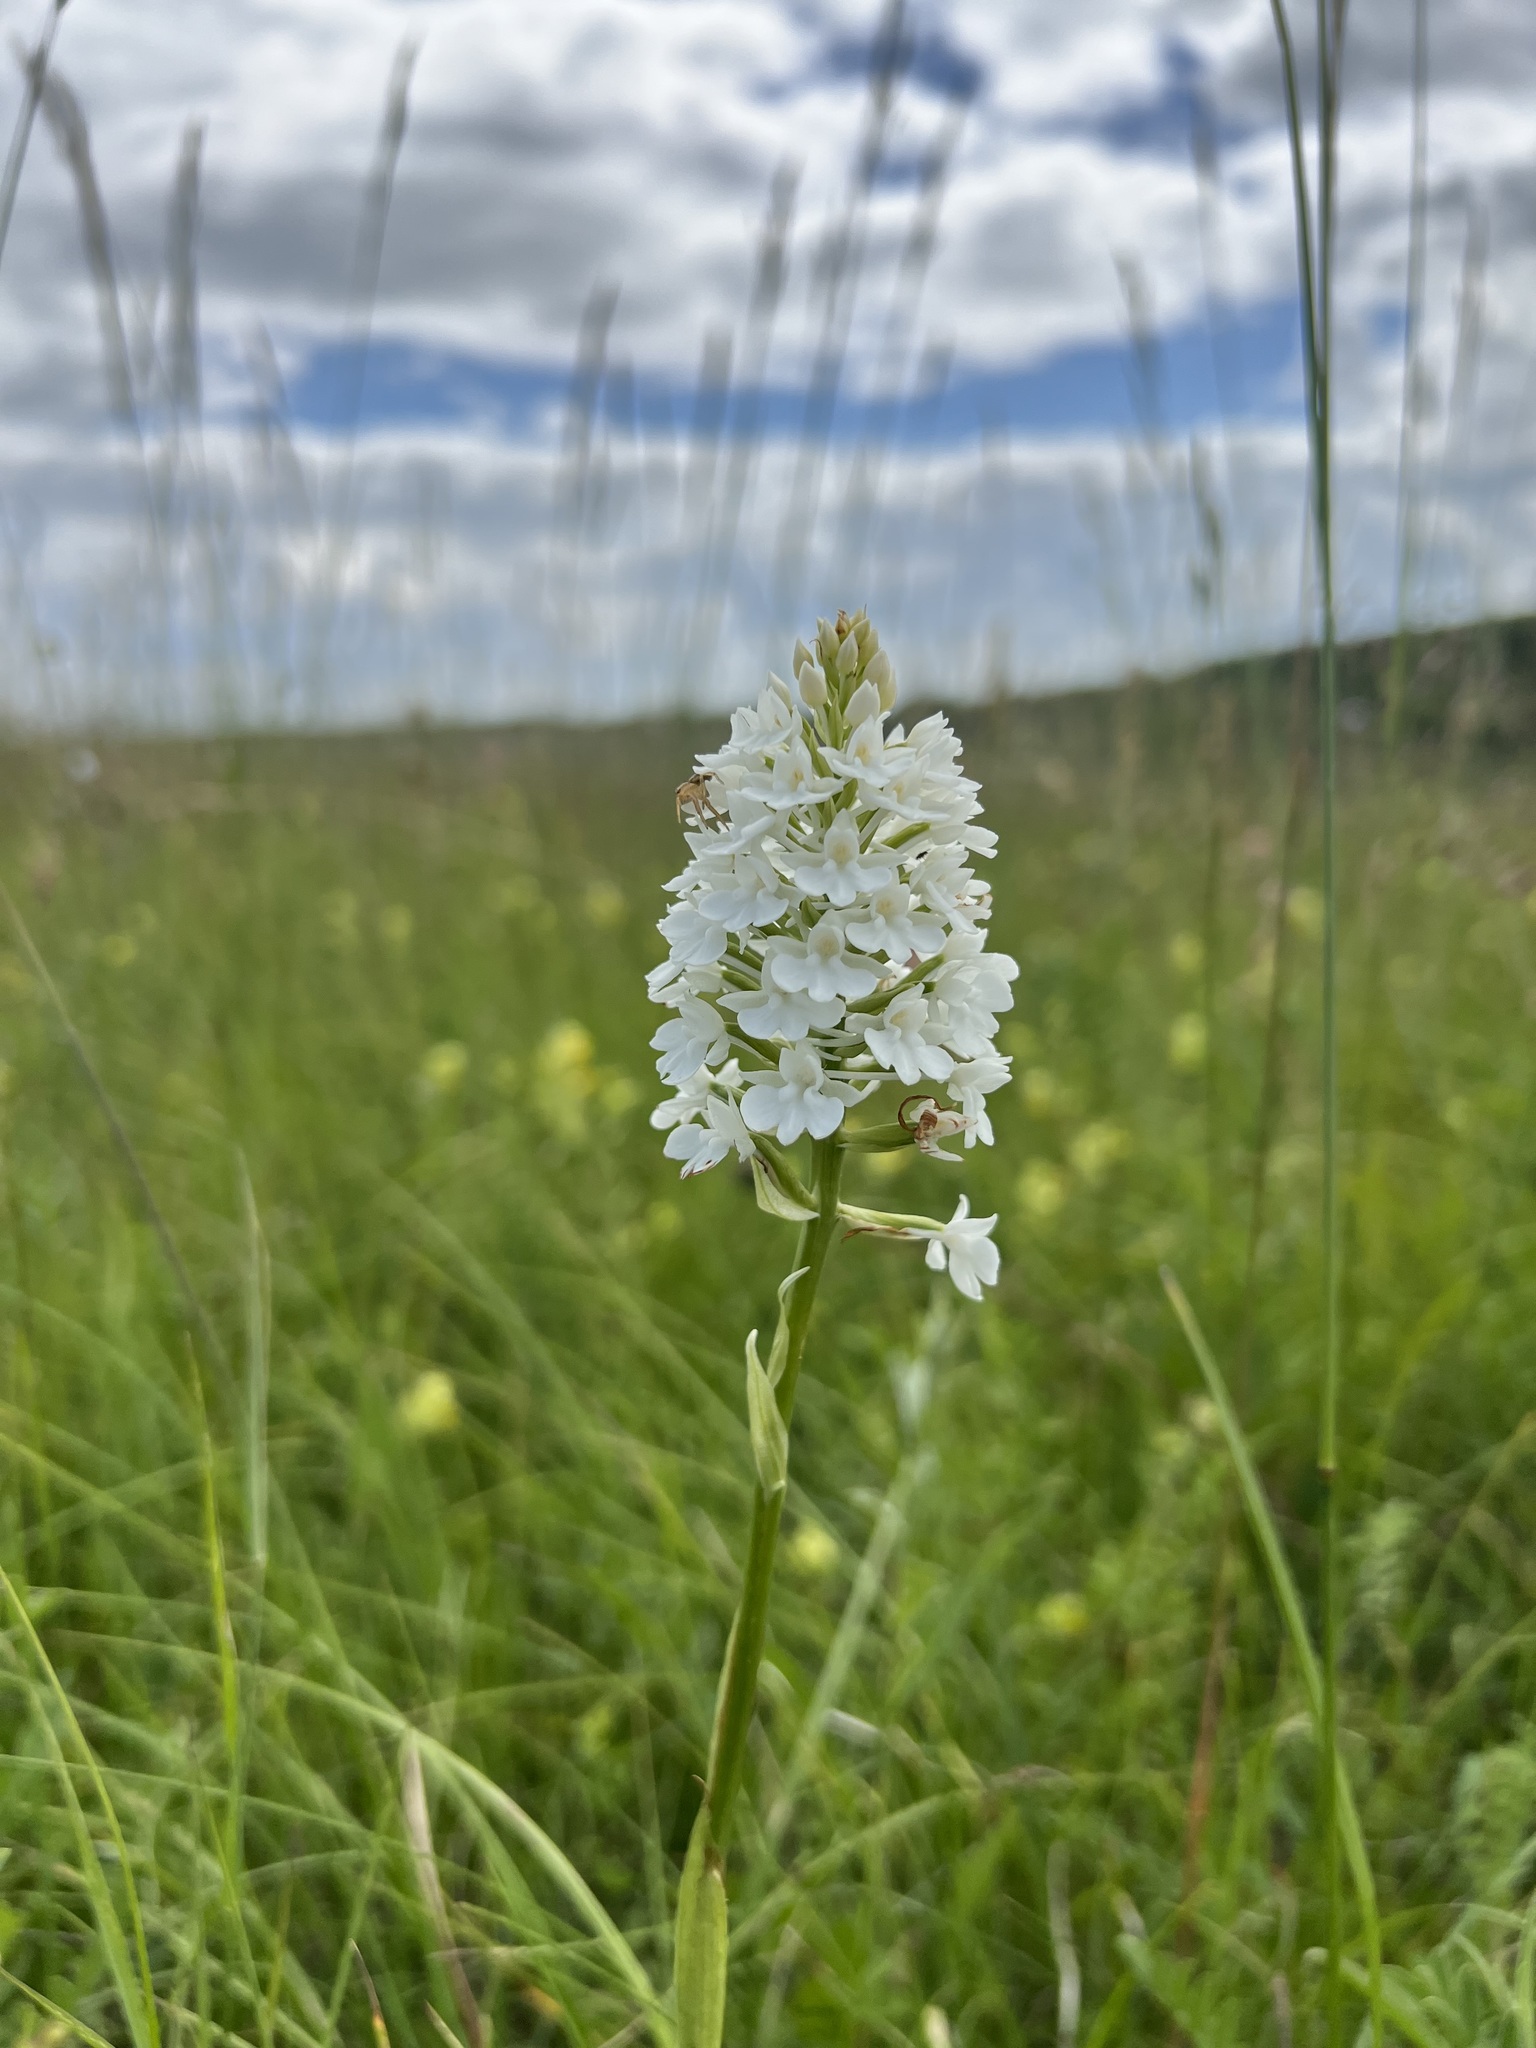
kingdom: Plantae
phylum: Tracheophyta
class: Liliopsida
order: Asparagales
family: Orchidaceae
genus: Anacamptis
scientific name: Anacamptis pyramidalis
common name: Pyramidal orchid
